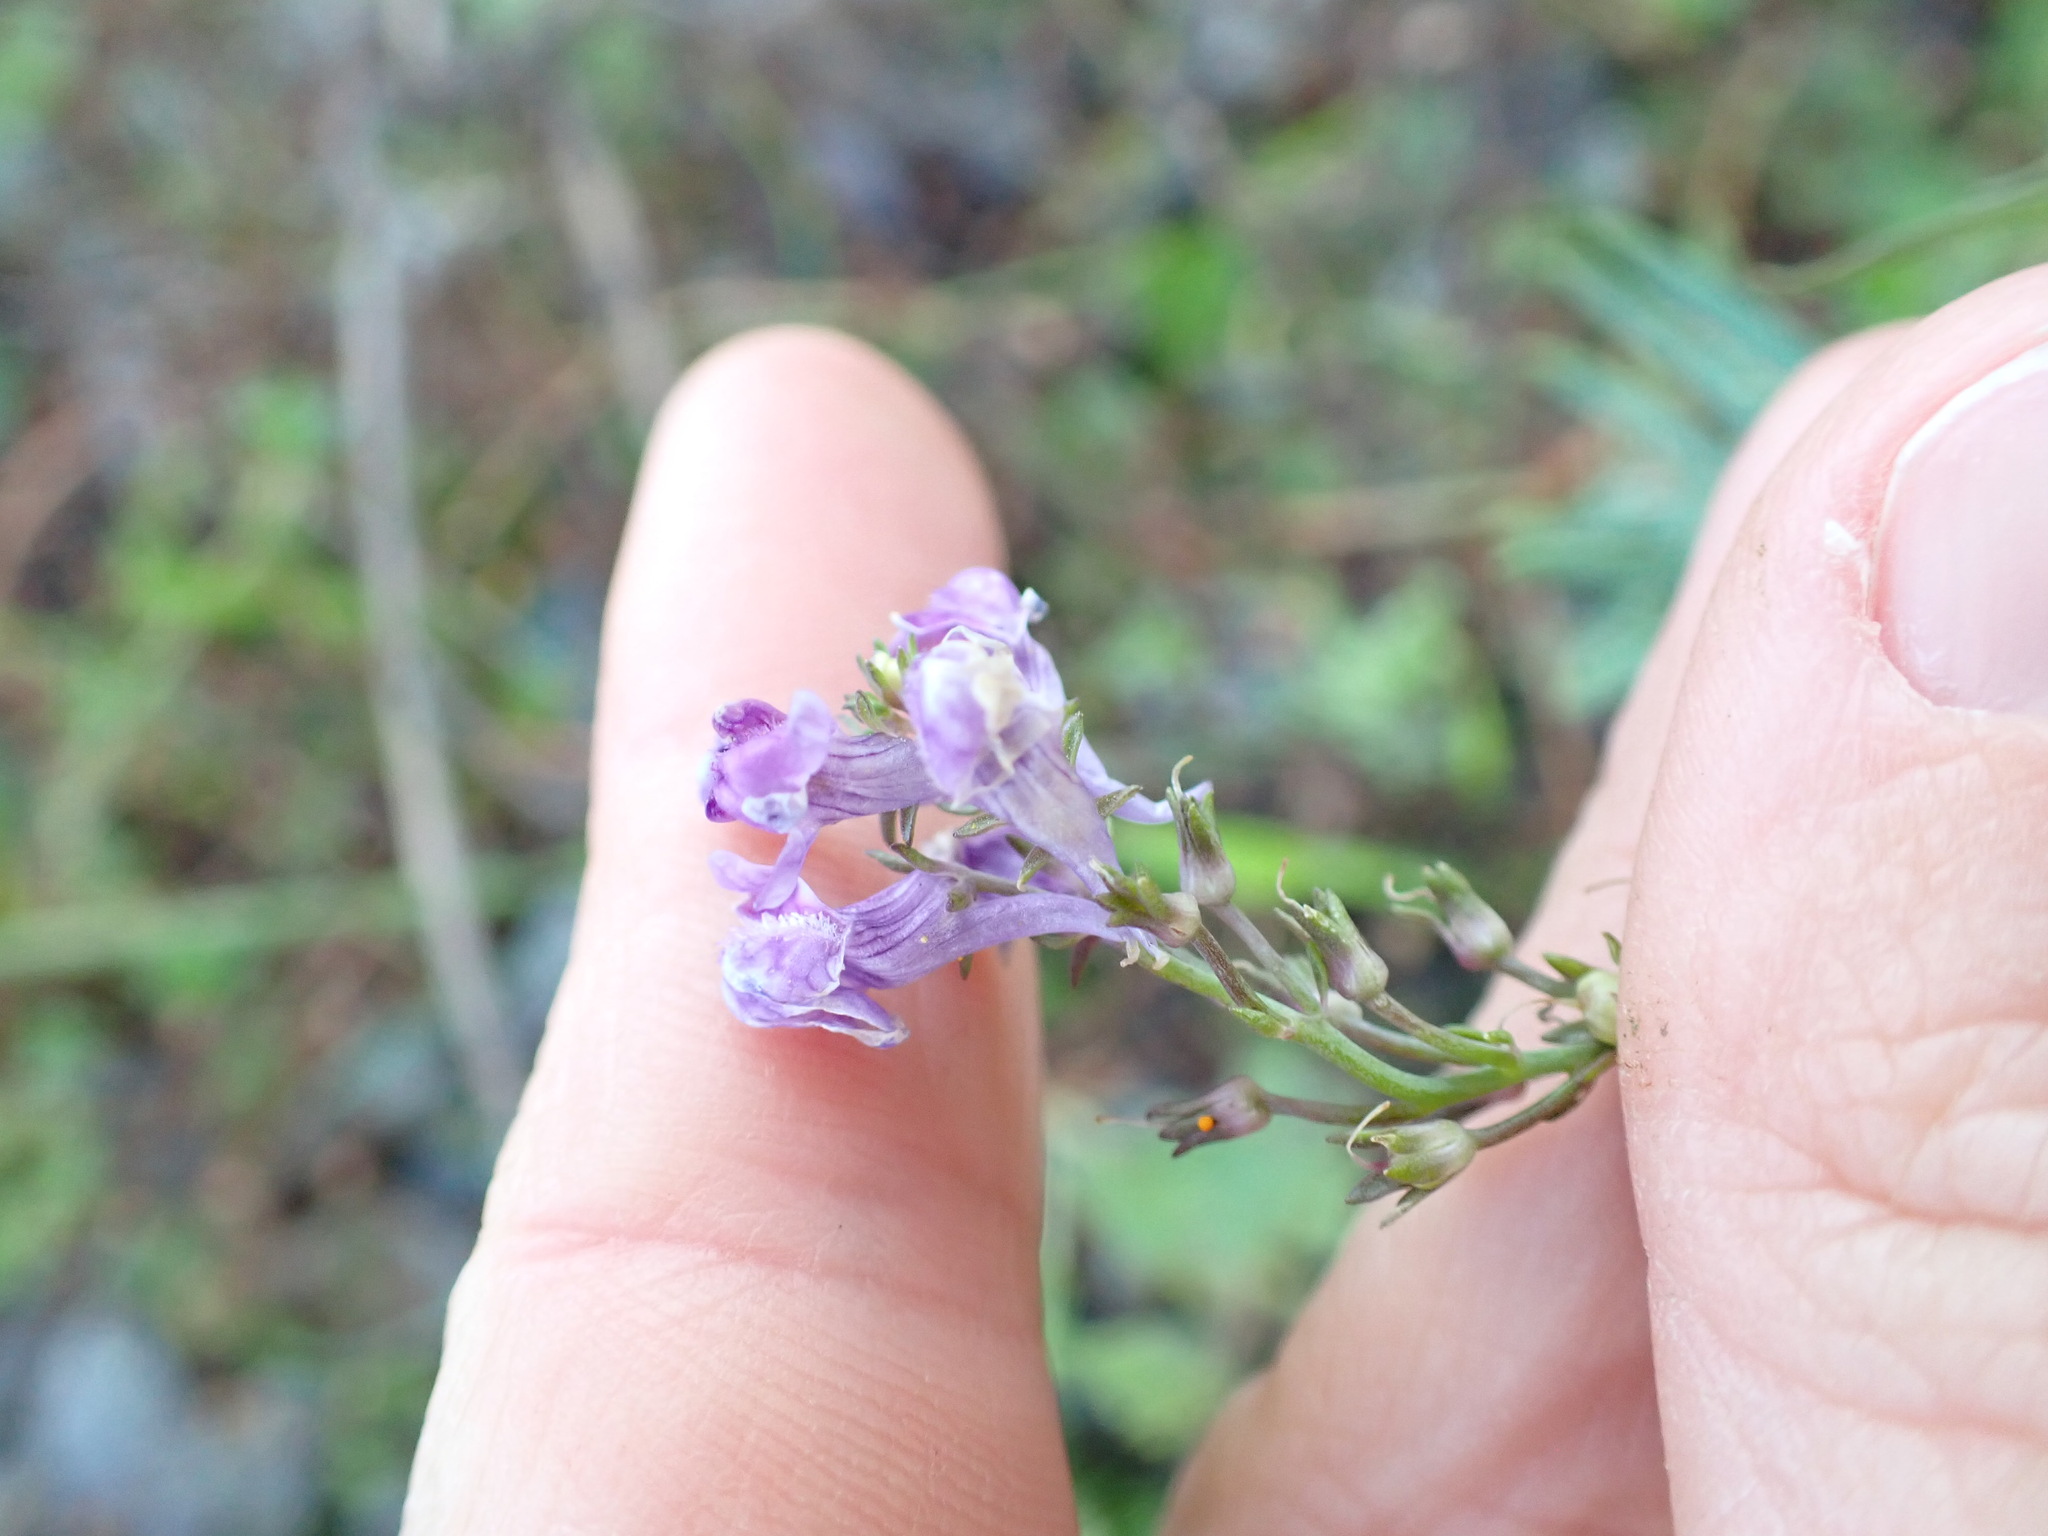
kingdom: Plantae
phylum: Tracheophyta
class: Magnoliopsida
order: Lamiales
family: Plantaginaceae
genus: Linaria
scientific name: Linaria purpurea
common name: Purple toadflax
